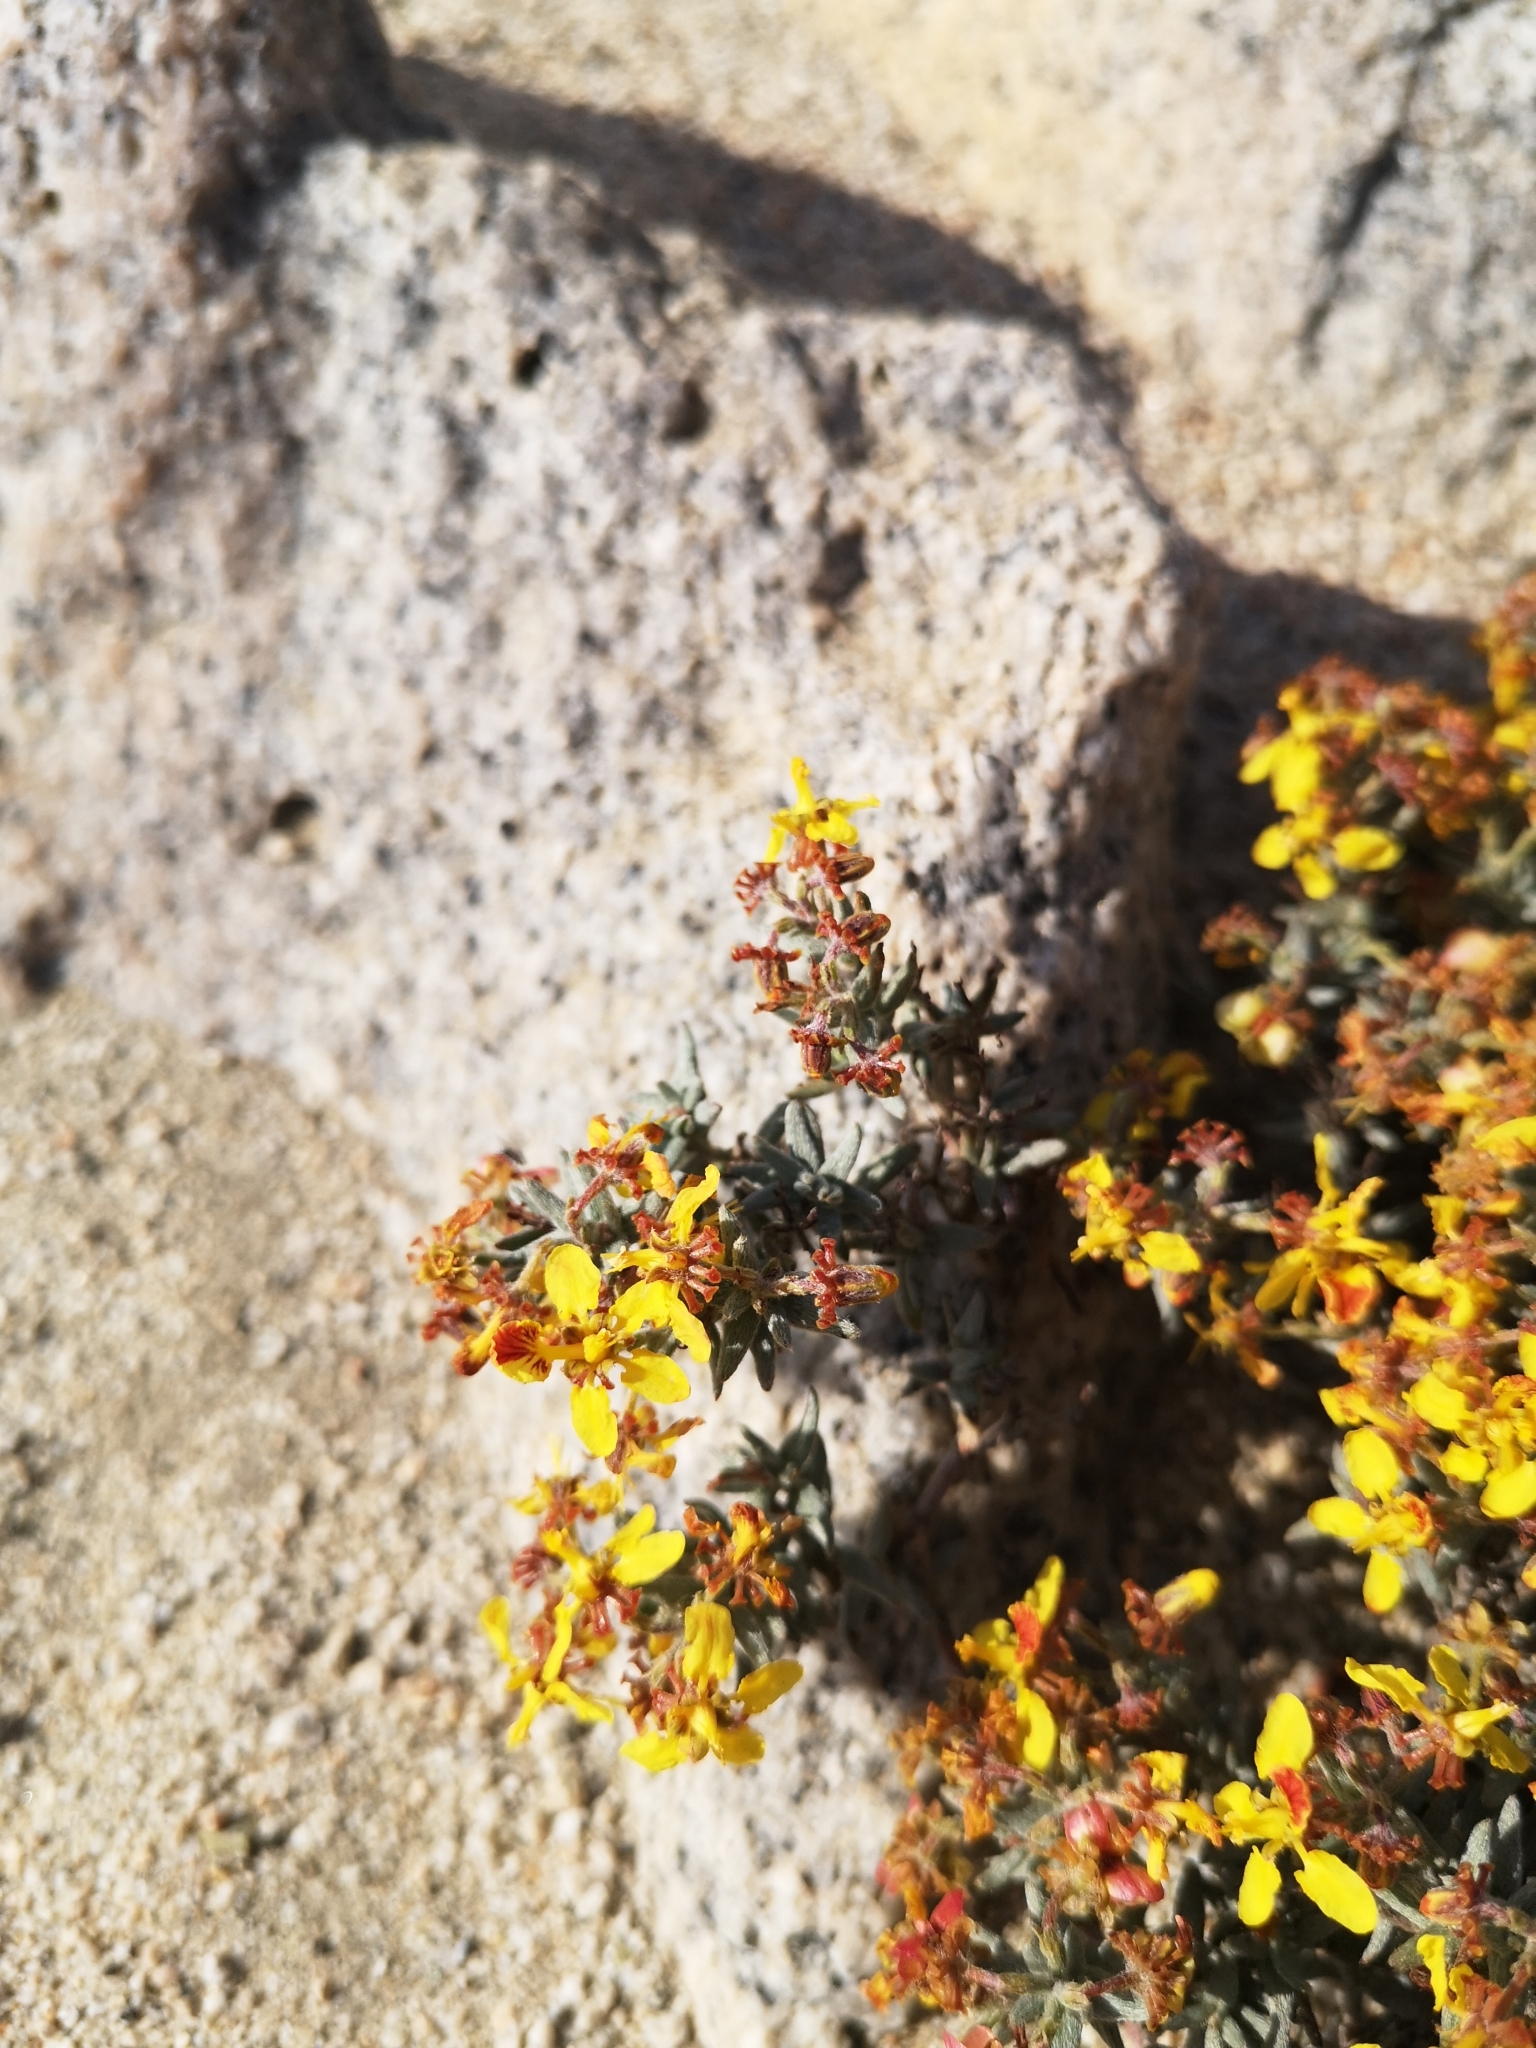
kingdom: Plantae
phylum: Tracheophyta
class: Magnoliopsida
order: Malpighiales
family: Malpighiaceae
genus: Dinemandra
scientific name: Dinemandra ericoides
